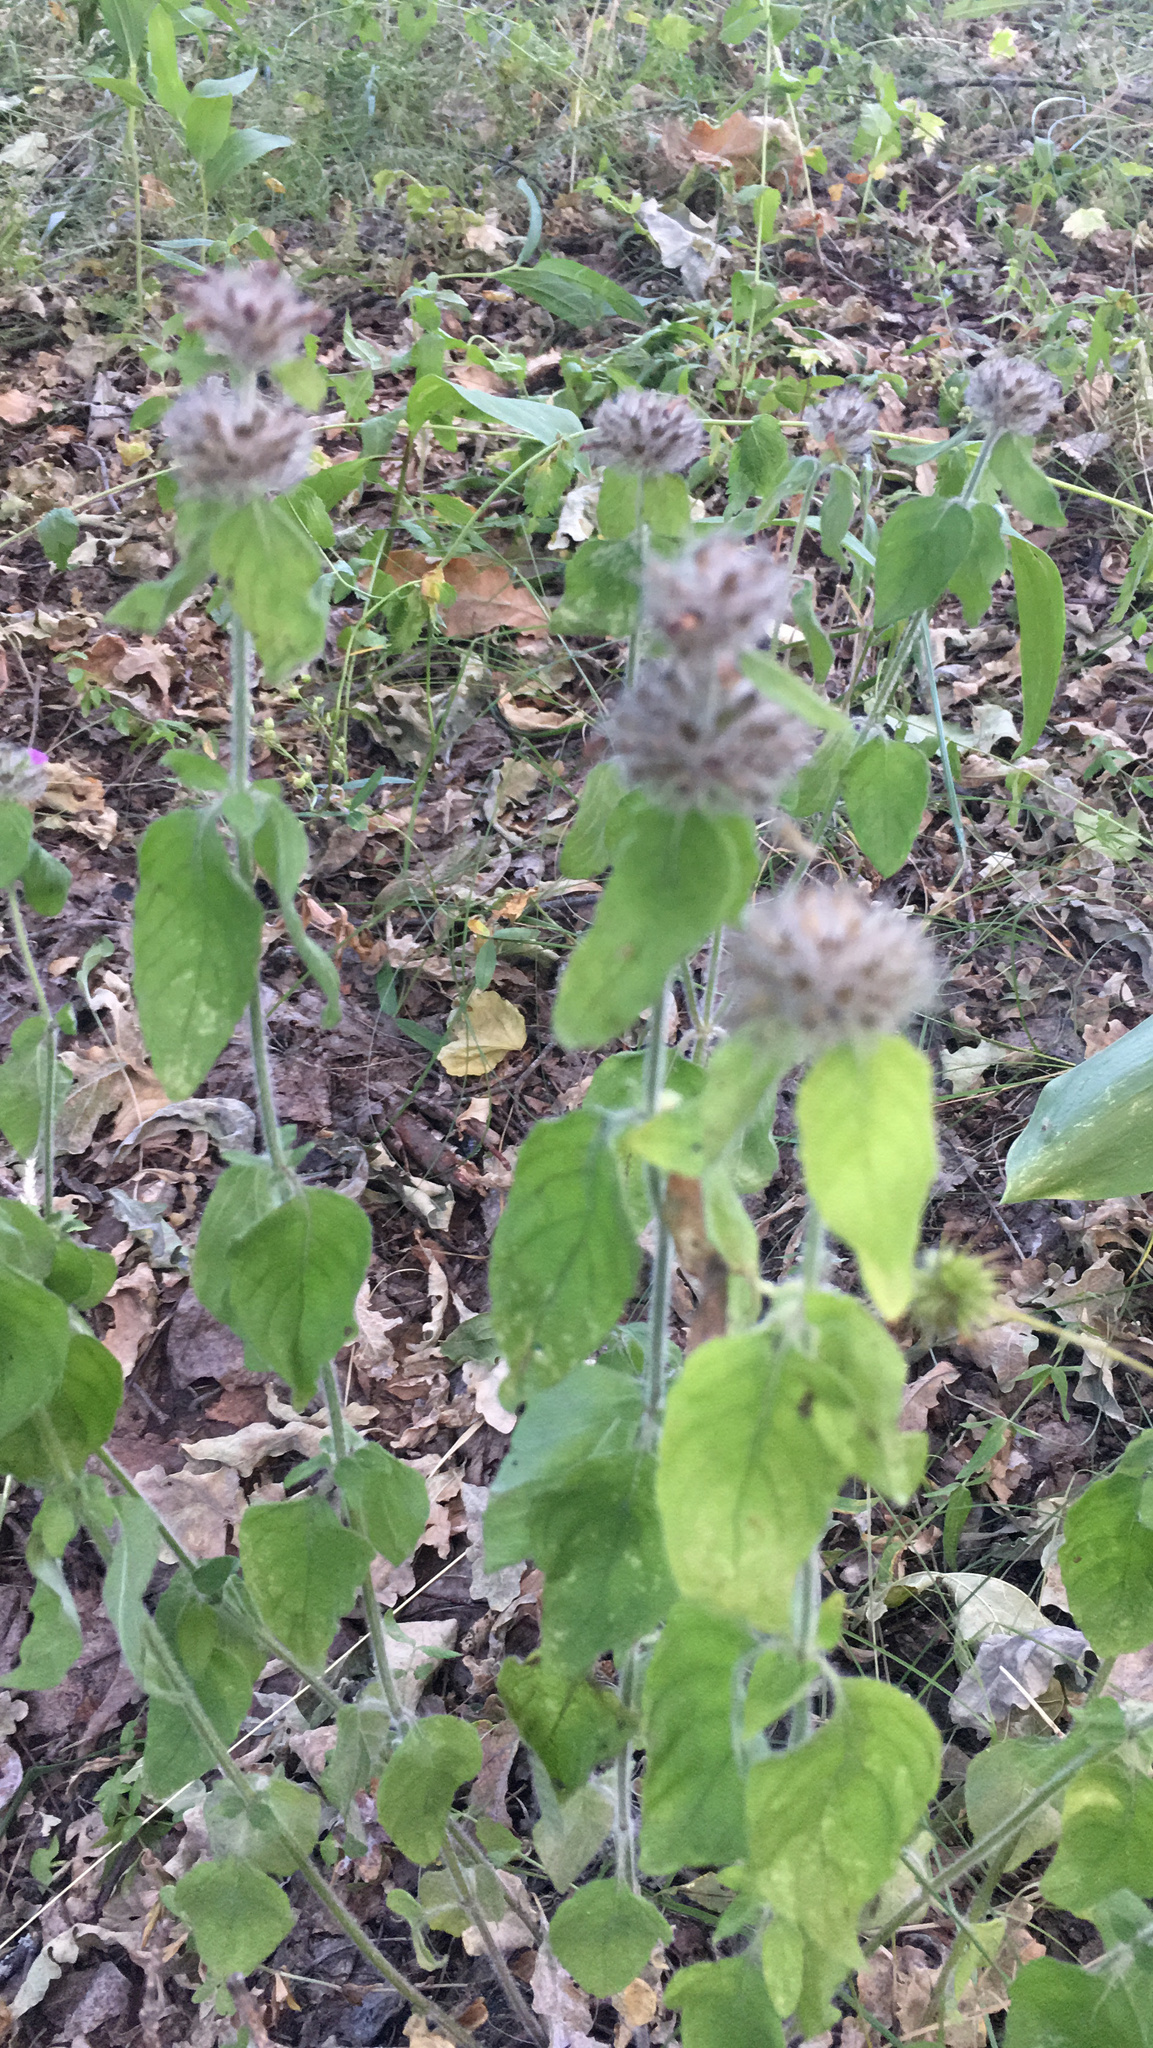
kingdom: Plantae
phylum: Tracheophyta
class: Magnoliopsida
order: Lamiales
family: Lamiaceae
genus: Clinopodium
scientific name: Clinopodium vulgare
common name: Wild basil
